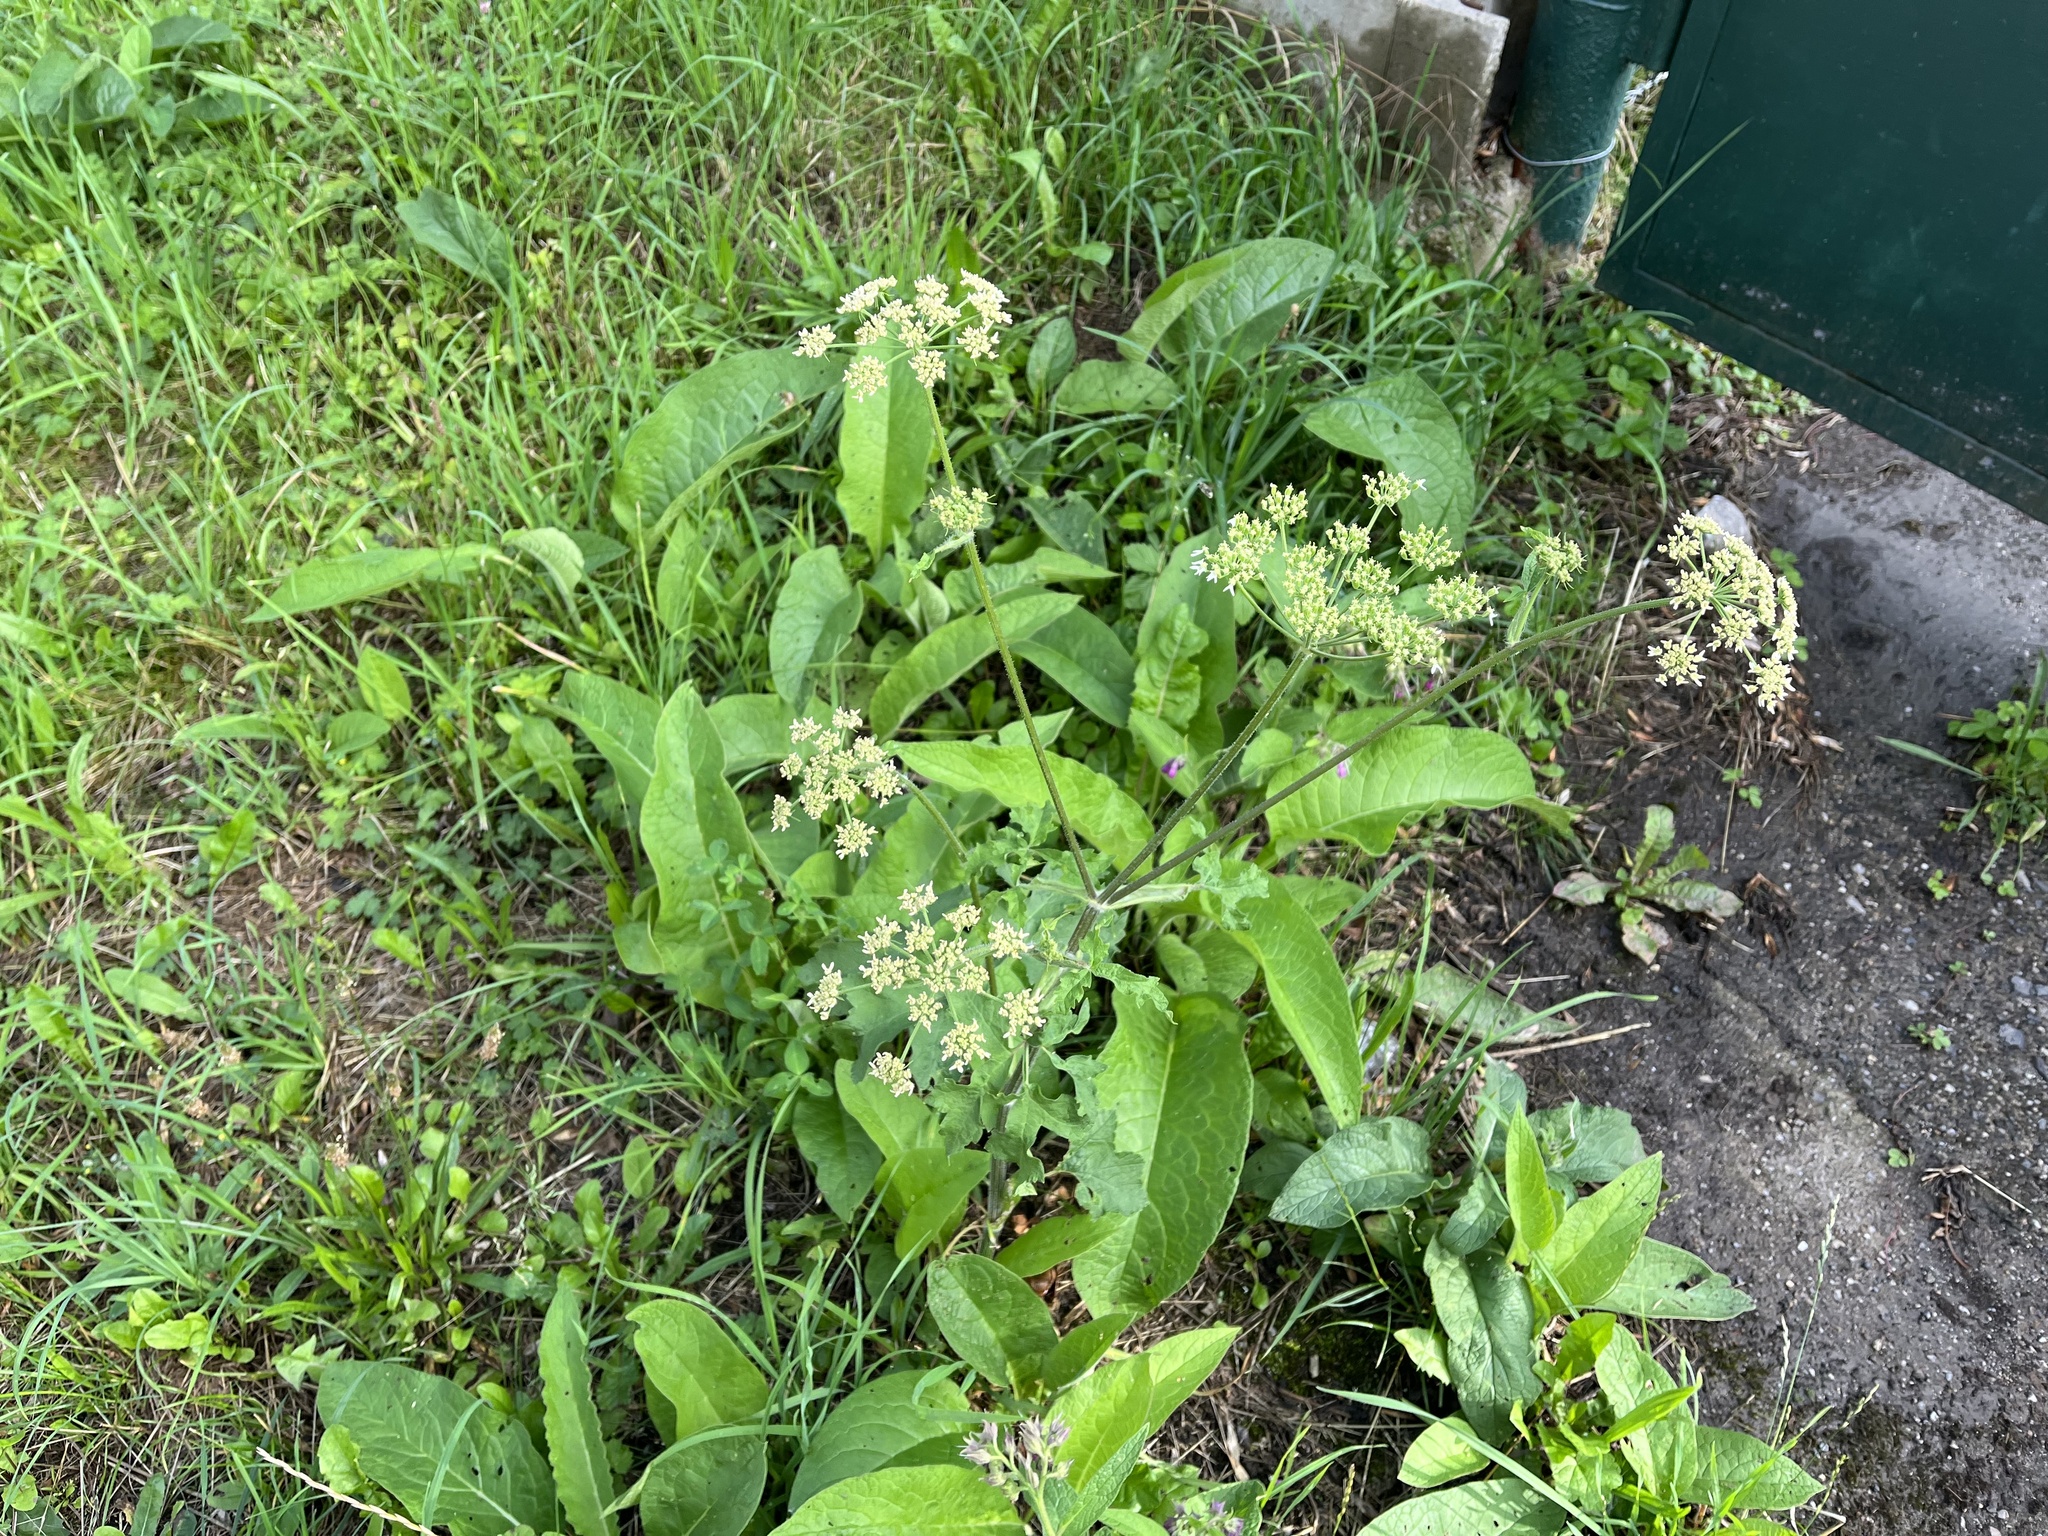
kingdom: Plantae
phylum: Tracheophyta
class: Magnoliopsida
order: Apiales
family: Apiaceae
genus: Heracleum
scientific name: Heracleum sphondylium
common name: Hogweed
